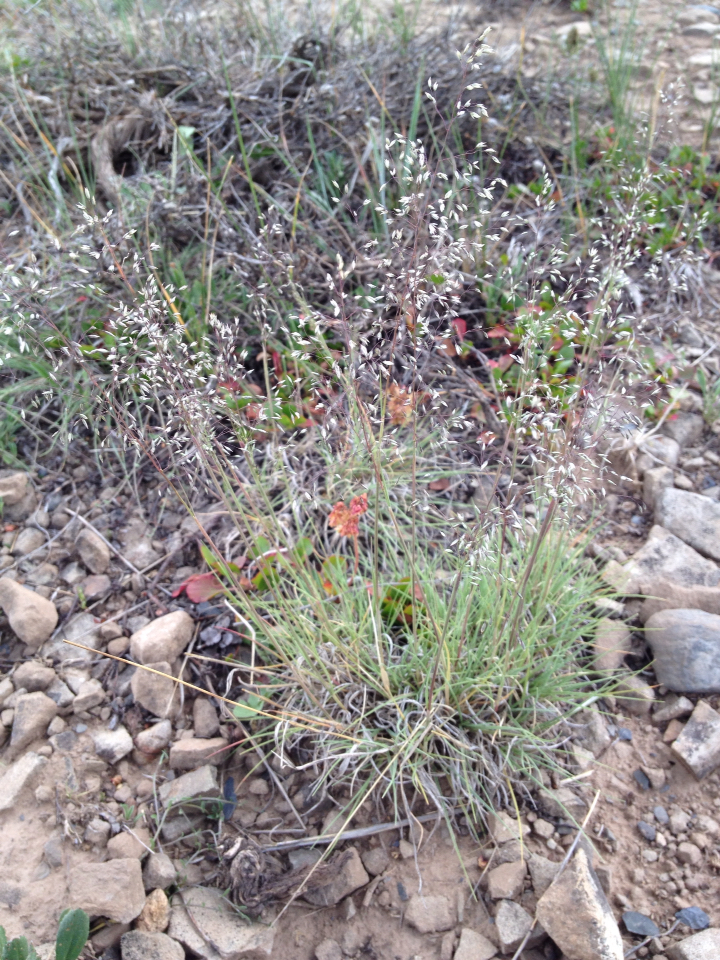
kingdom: Plantae
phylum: Tracheophyta
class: Liliopsida
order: Poales
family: Poaceae
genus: Eriocoma
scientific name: Eriocoma hymenoides
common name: Indian mountain ricegrass
